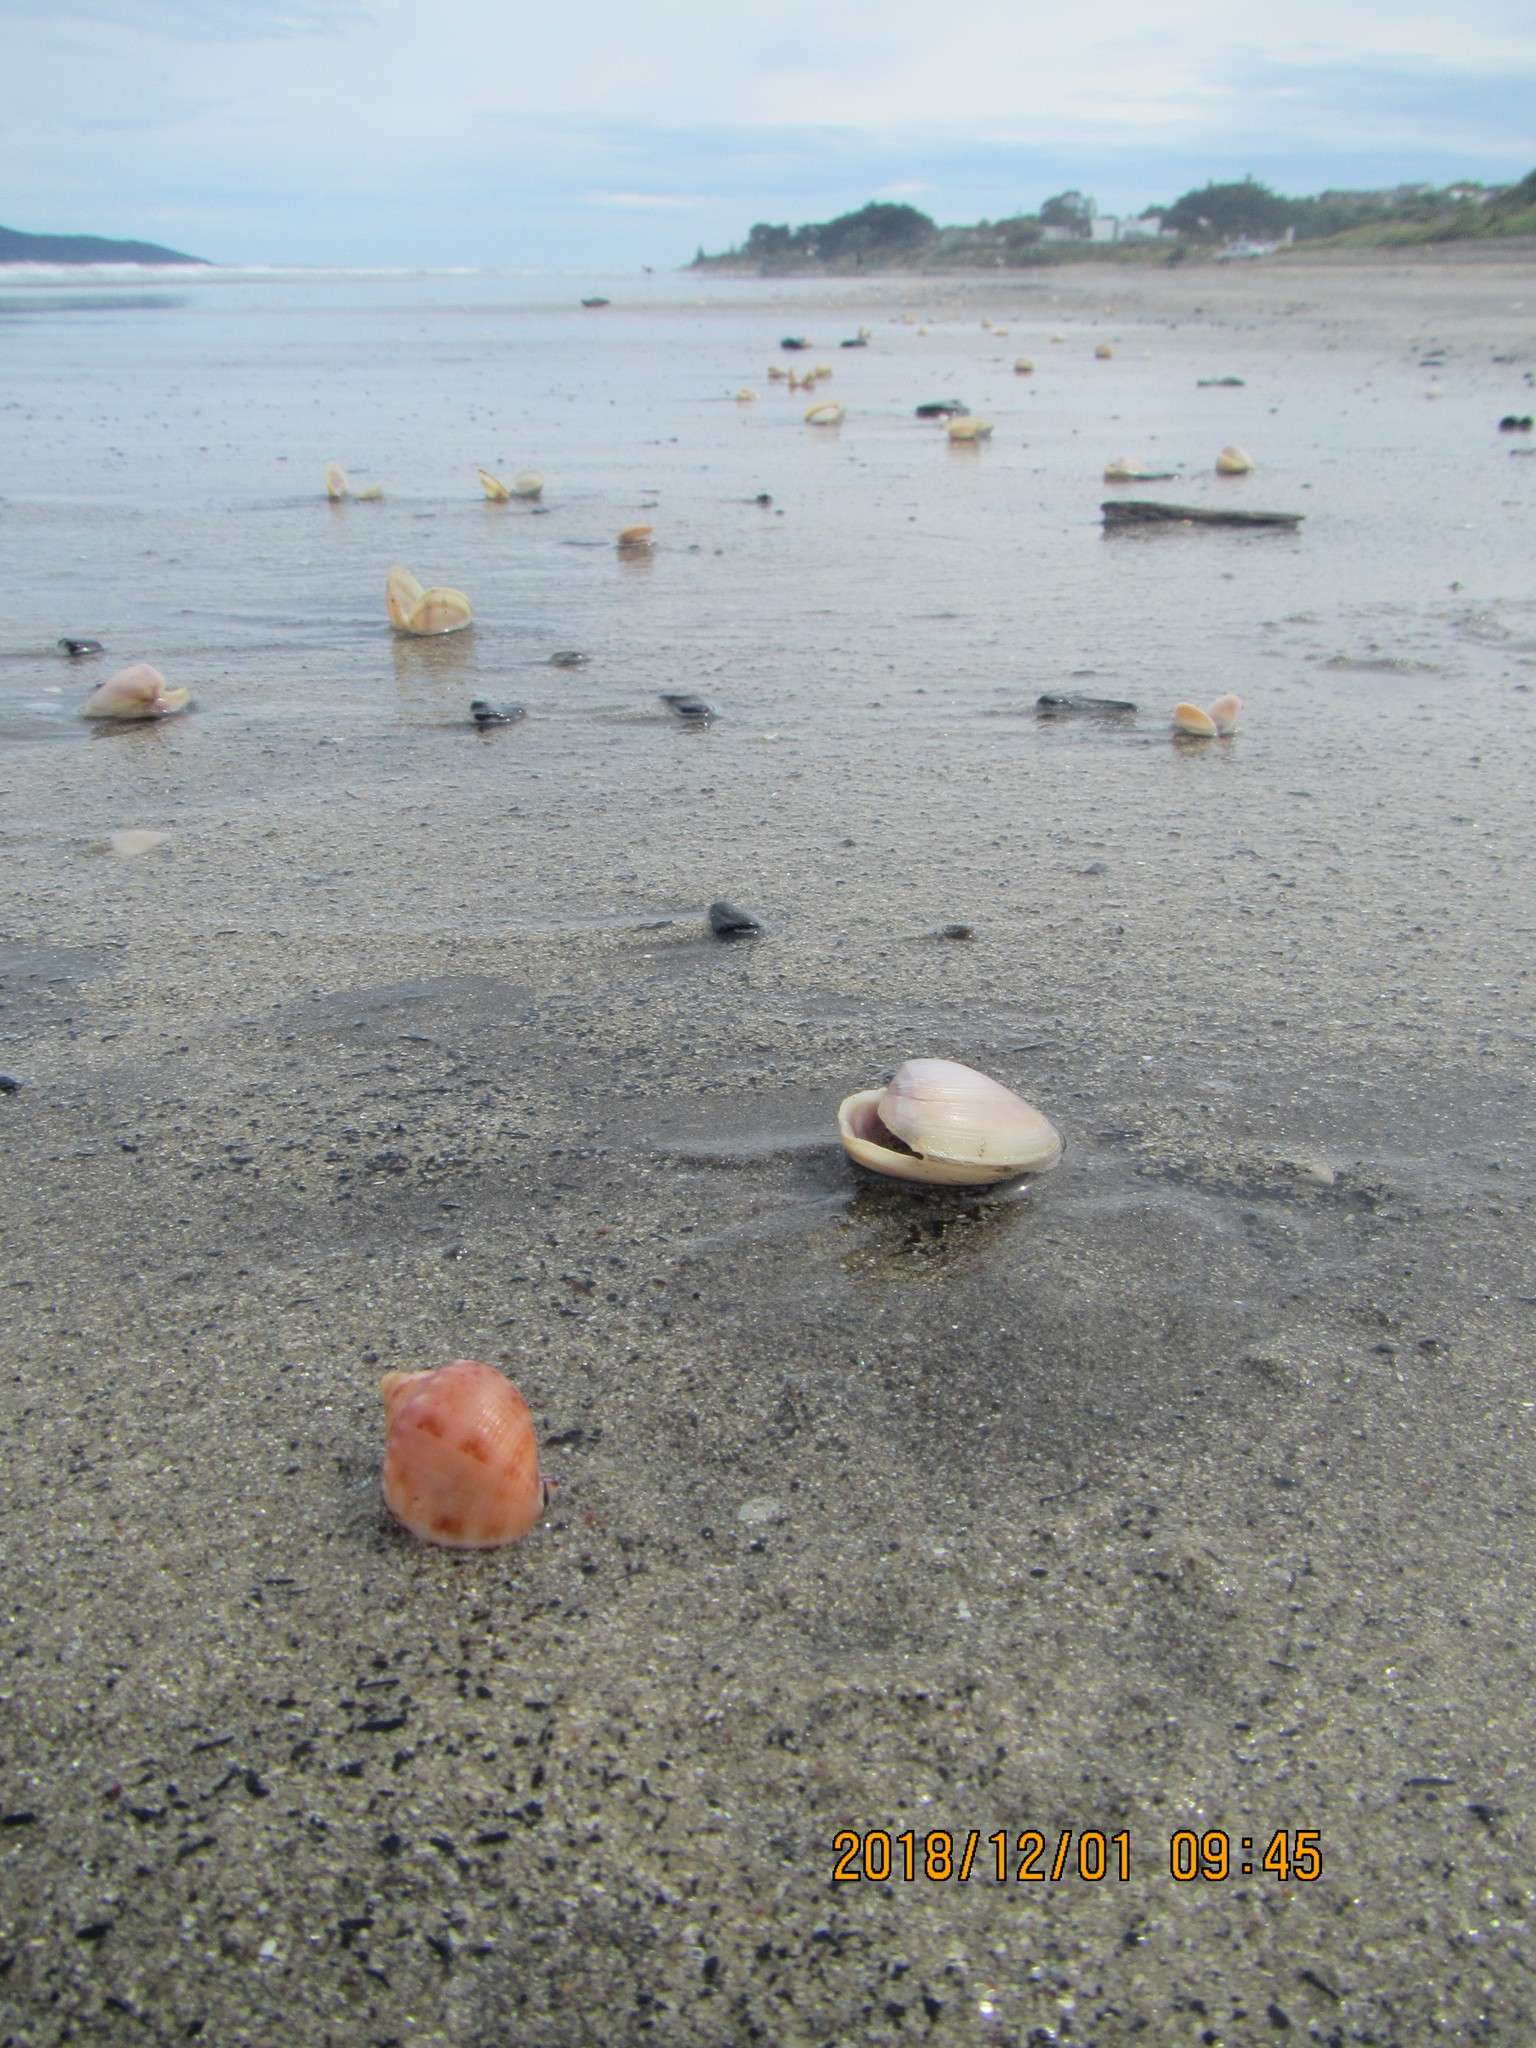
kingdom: Animalia
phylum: Mollusca
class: Gastropoda
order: Littorinimorpha
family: Cassidae
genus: Semicassis
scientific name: Semicassis pyrum
